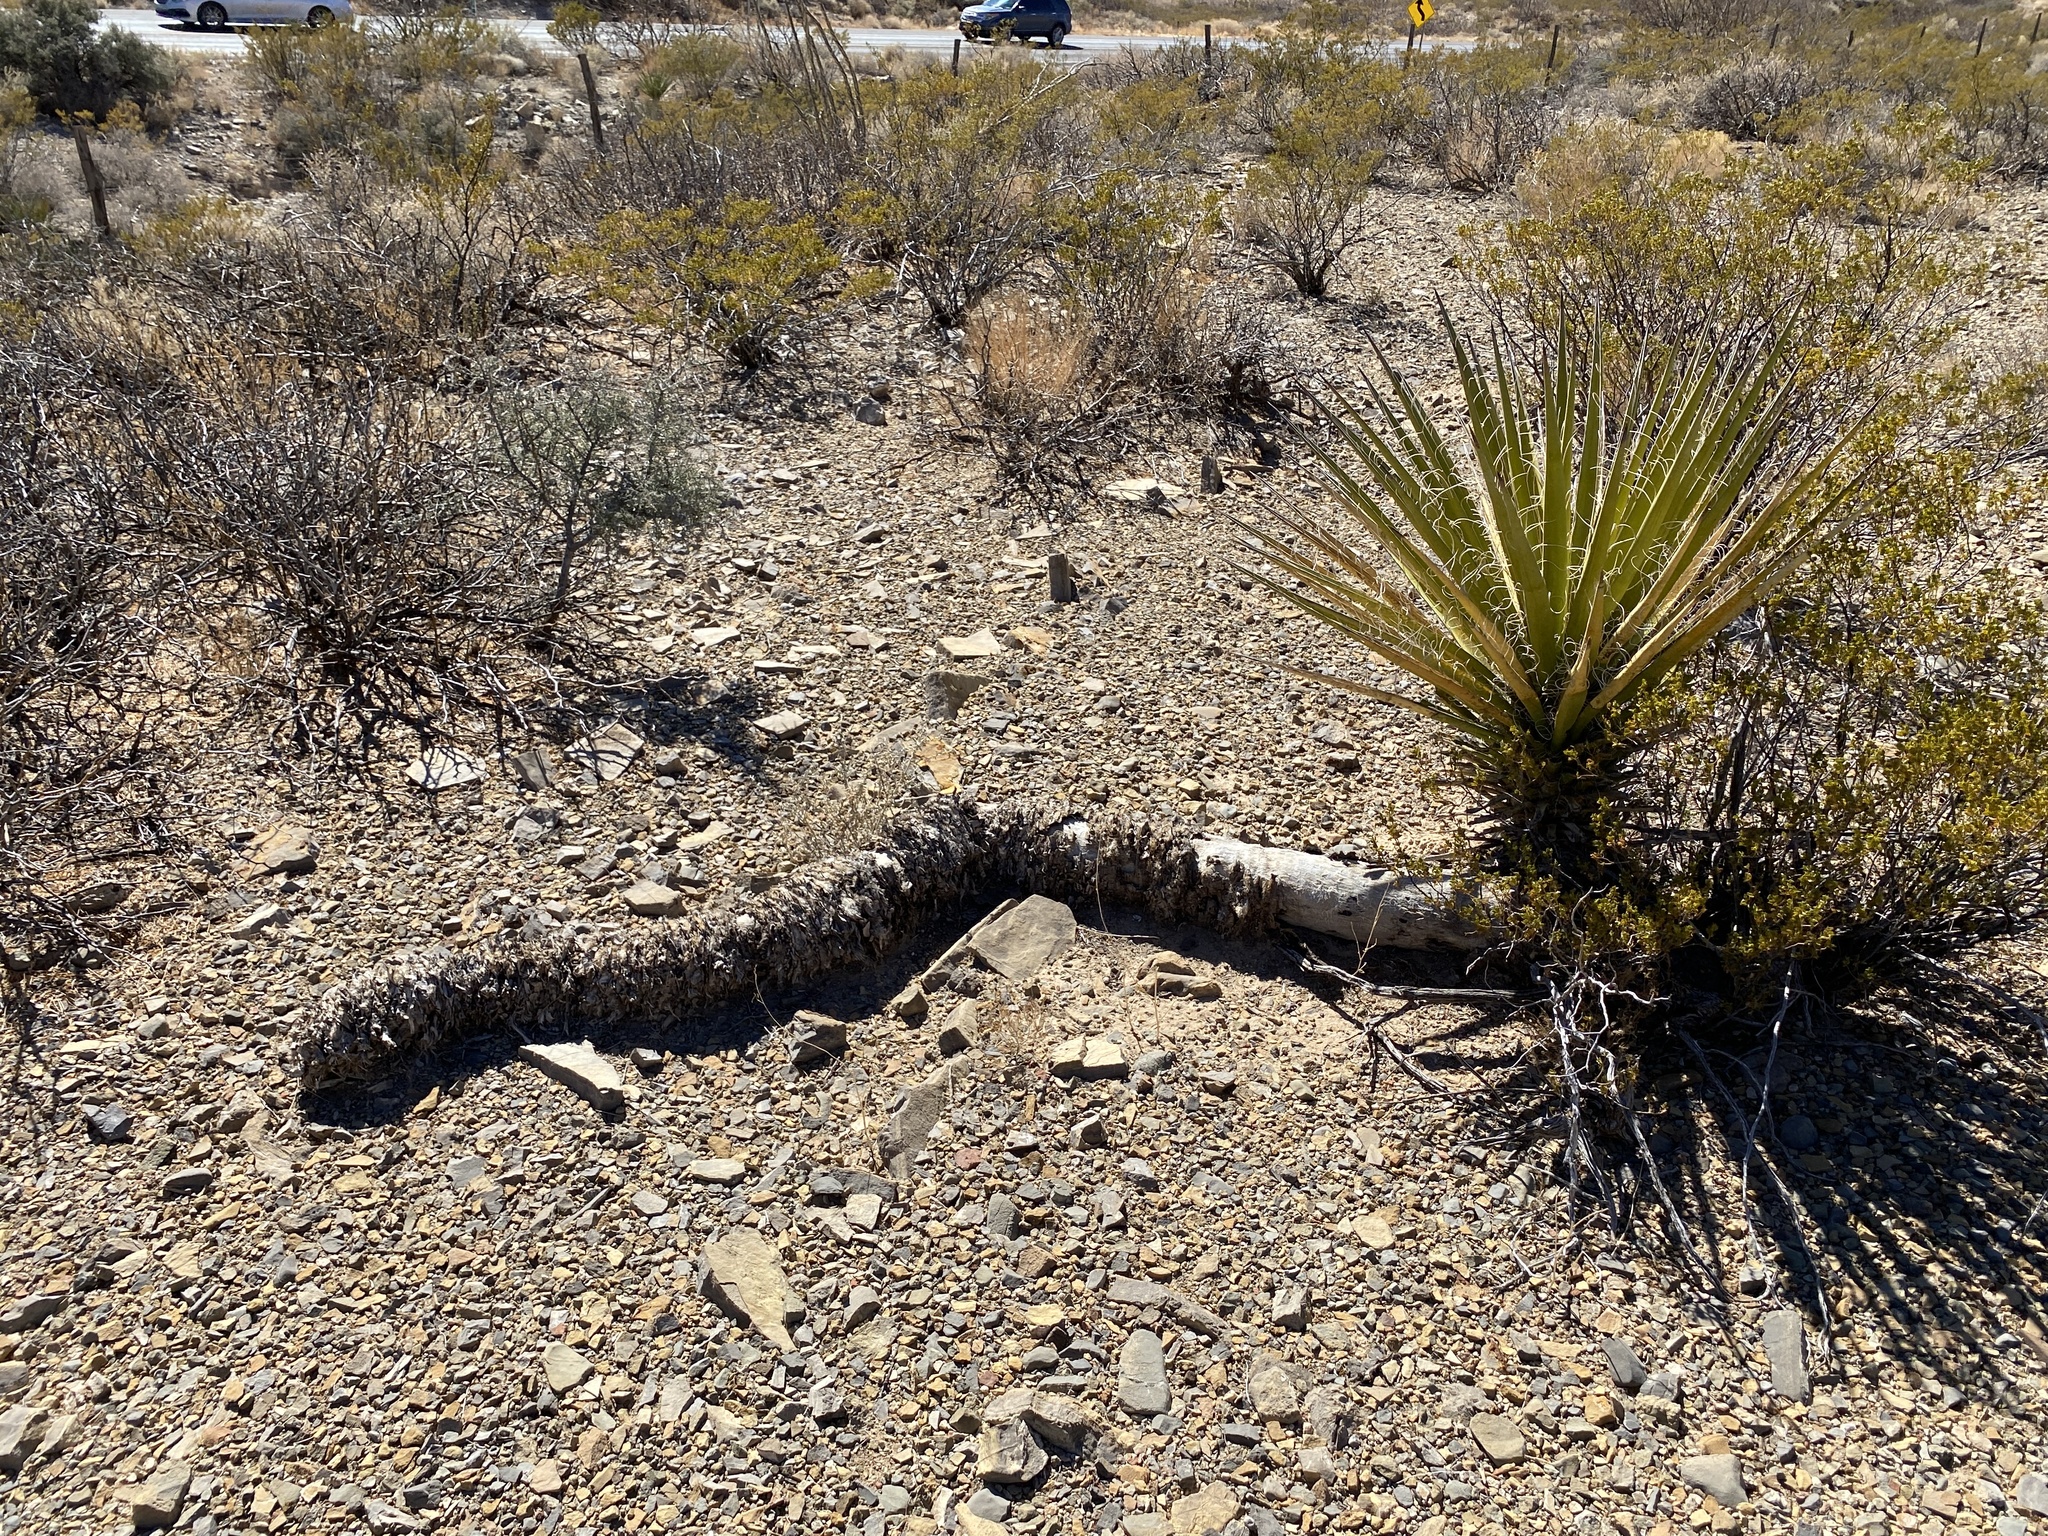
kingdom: Plantae
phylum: Tracheophyta
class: Liliopsida
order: Asparagales
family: Asparagaceae
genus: Yucca
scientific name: Yucca treculiana
